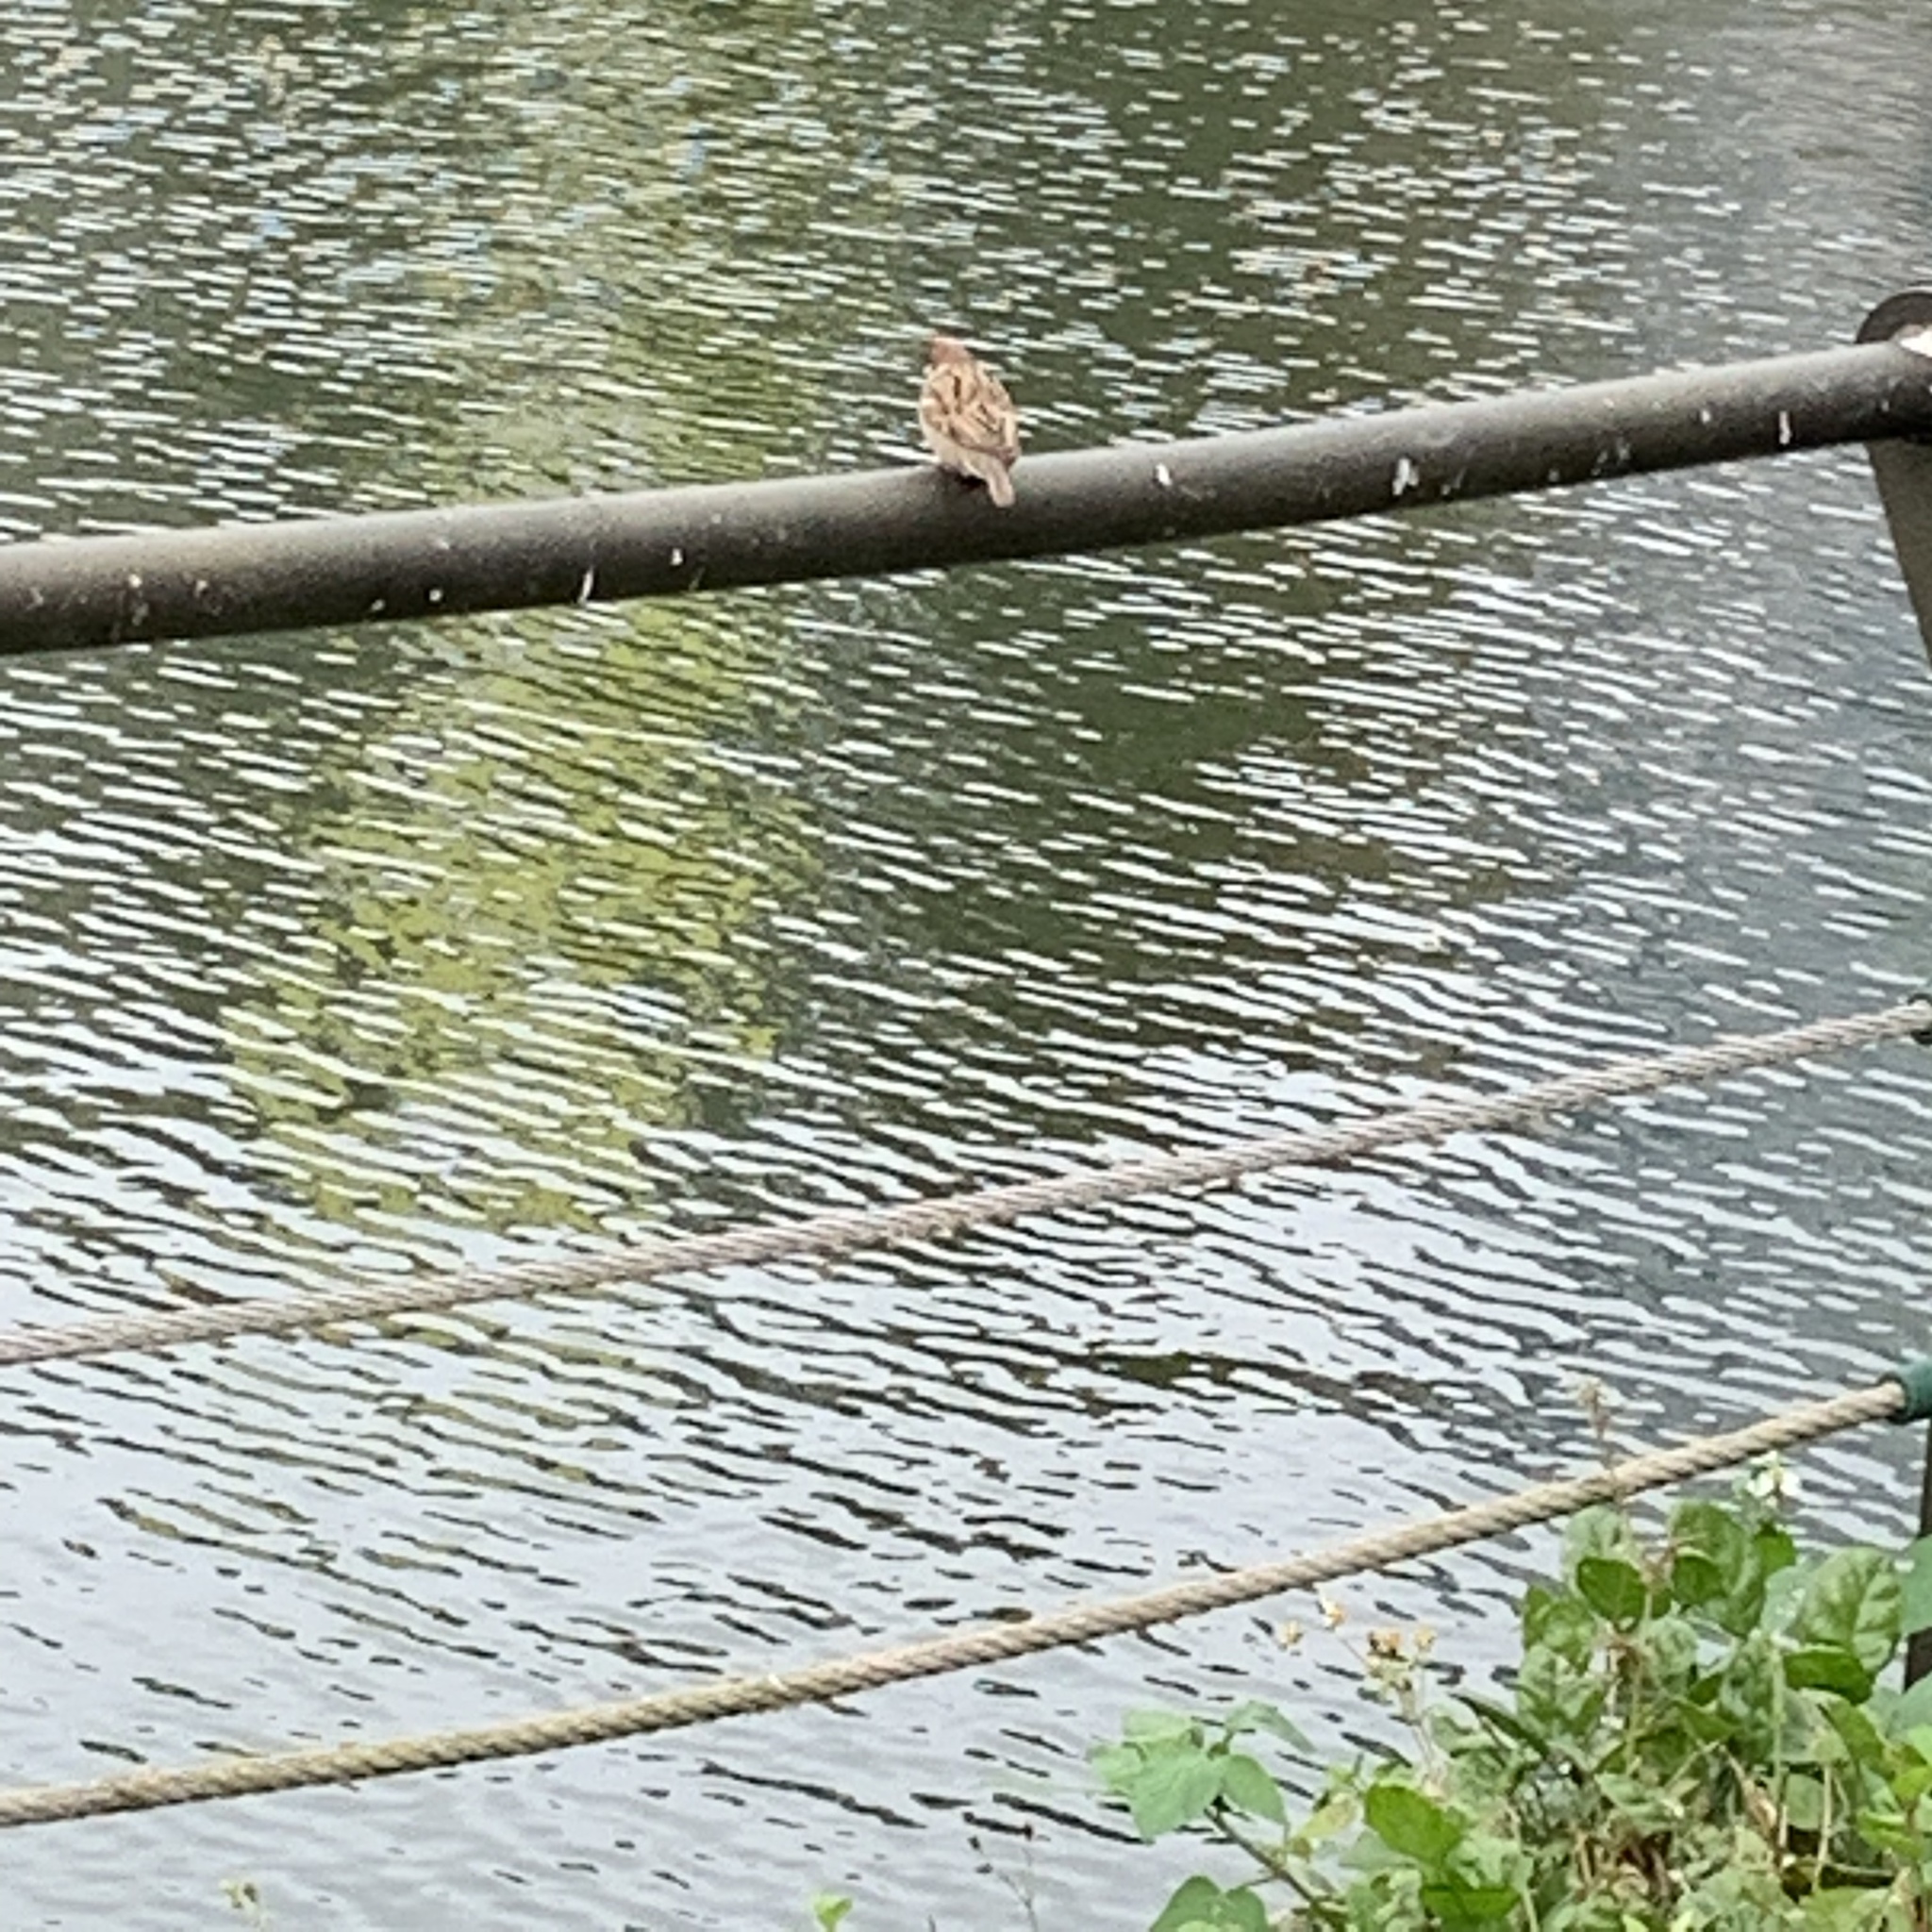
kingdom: Animalia
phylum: Chordata
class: Aves
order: Passeriformes
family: Passeridae
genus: Passer
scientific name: Passer montanus
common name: Eurasian tree sparrow
